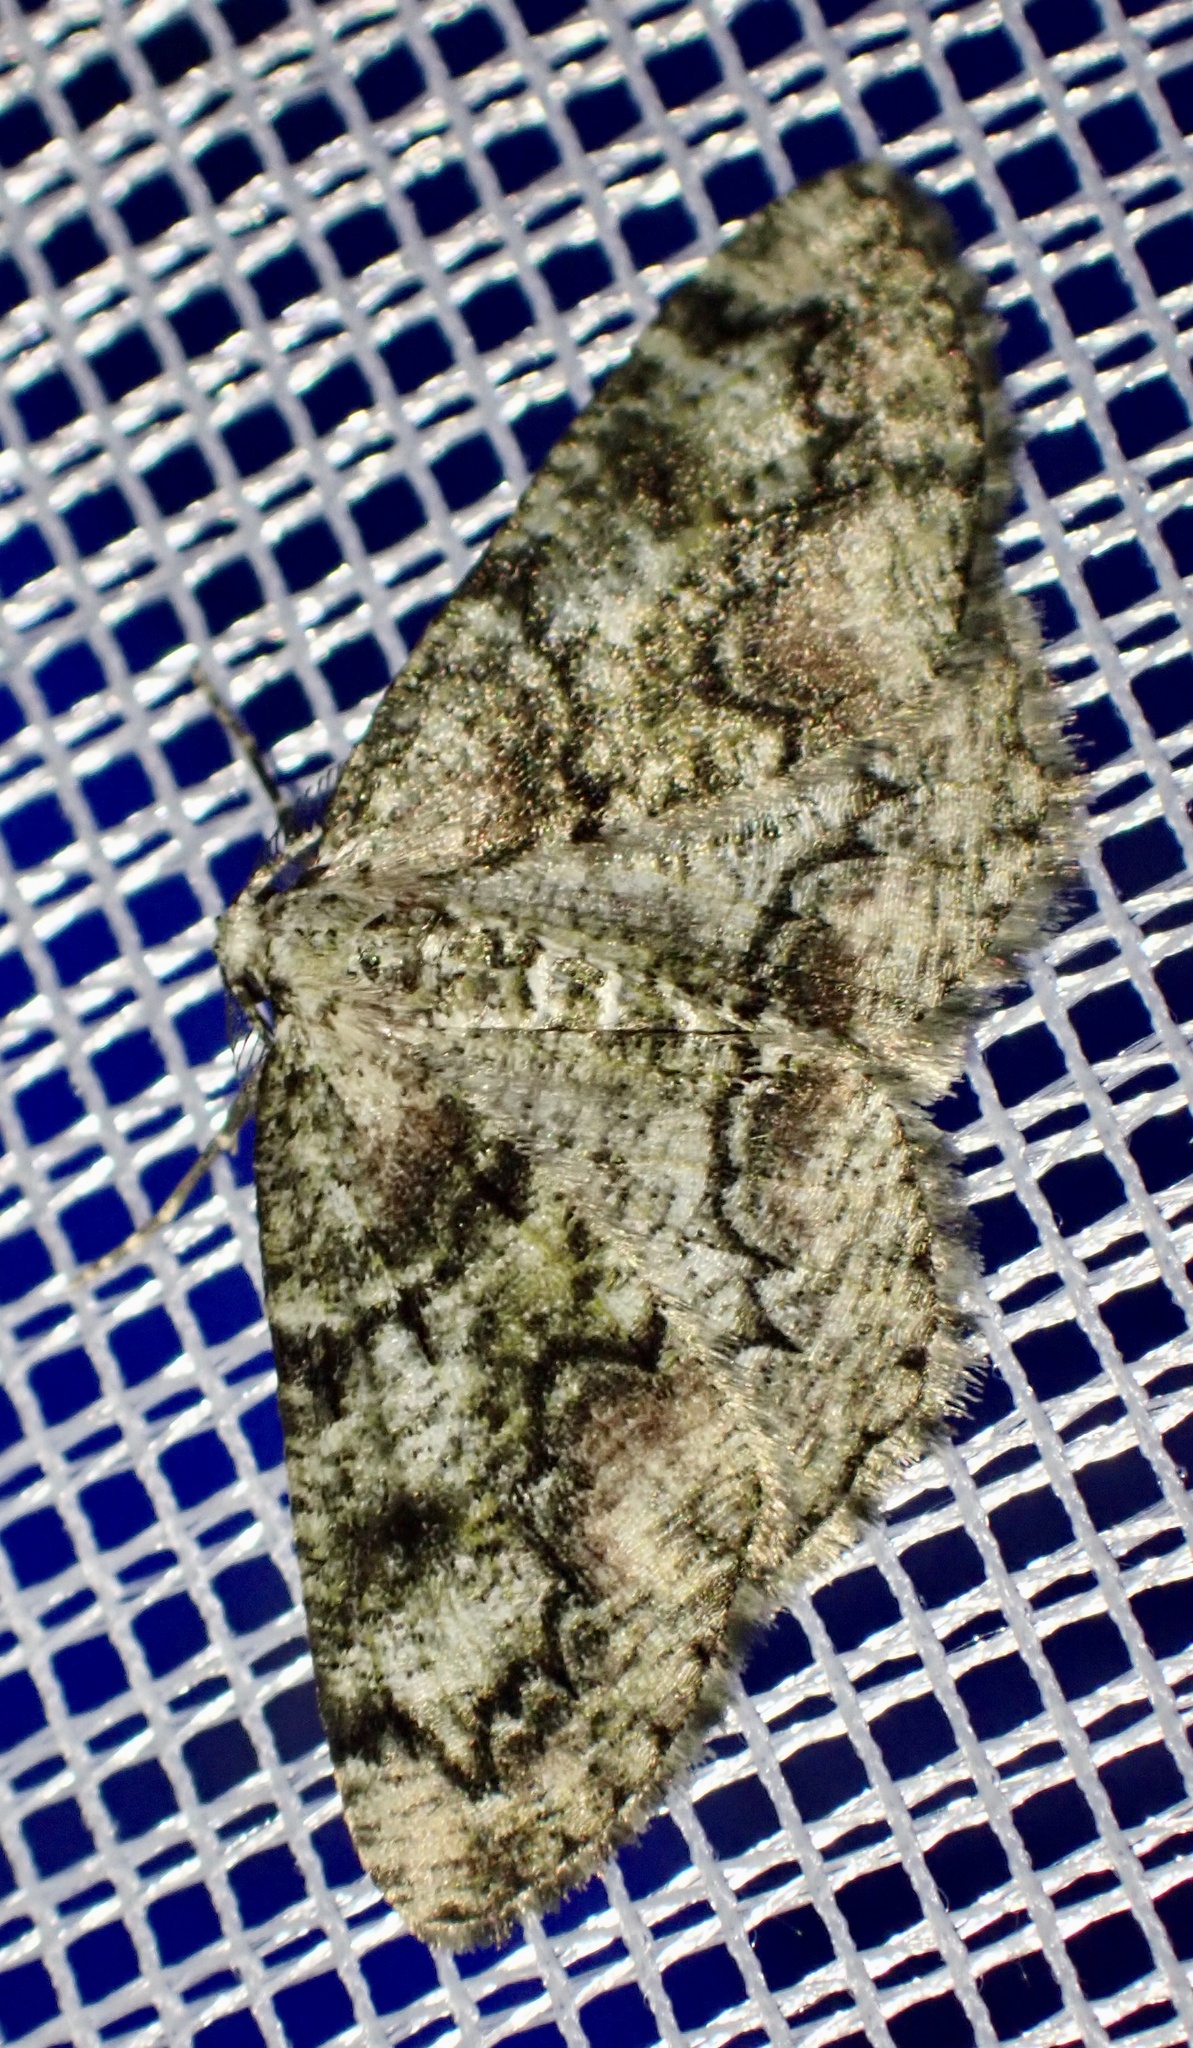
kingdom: Animalia
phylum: Arthropoda
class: Insecta
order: Lepidoptera
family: Geometridae
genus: Cleorodes
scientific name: Cleorodes lichenaria
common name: Brussels lace
